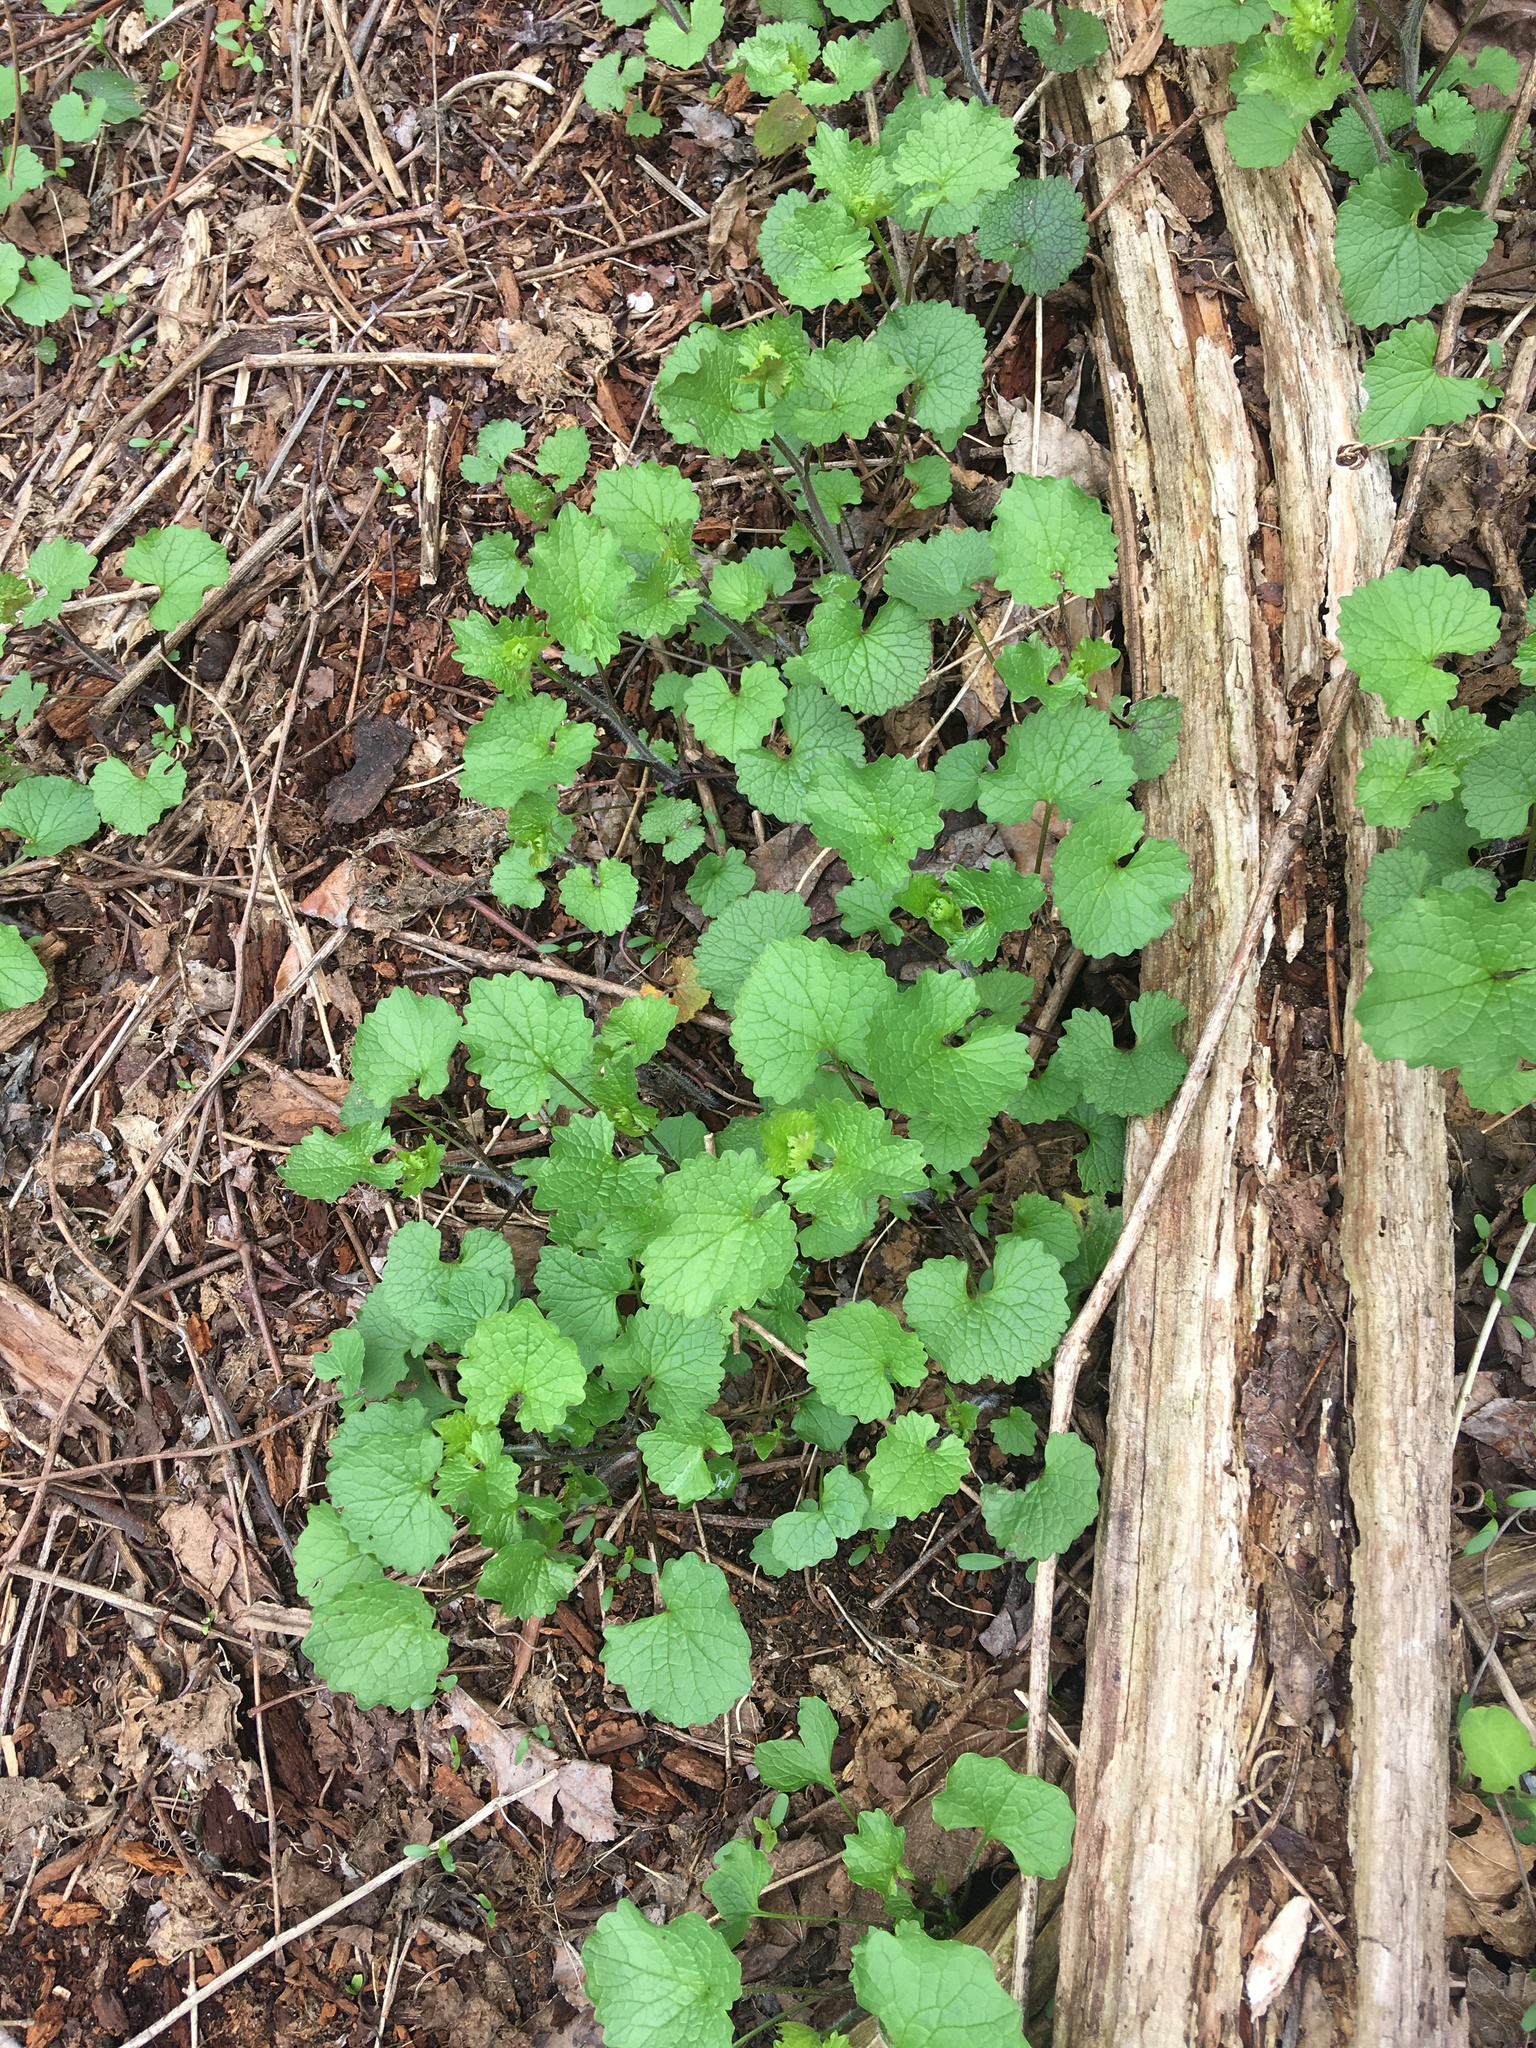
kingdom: Plantae
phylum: Tracheophyta
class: Magnoliopsida
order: Brassicales
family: Brassicaceae
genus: Alliaria
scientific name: Alliaria petiolata
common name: Garlic mustard
